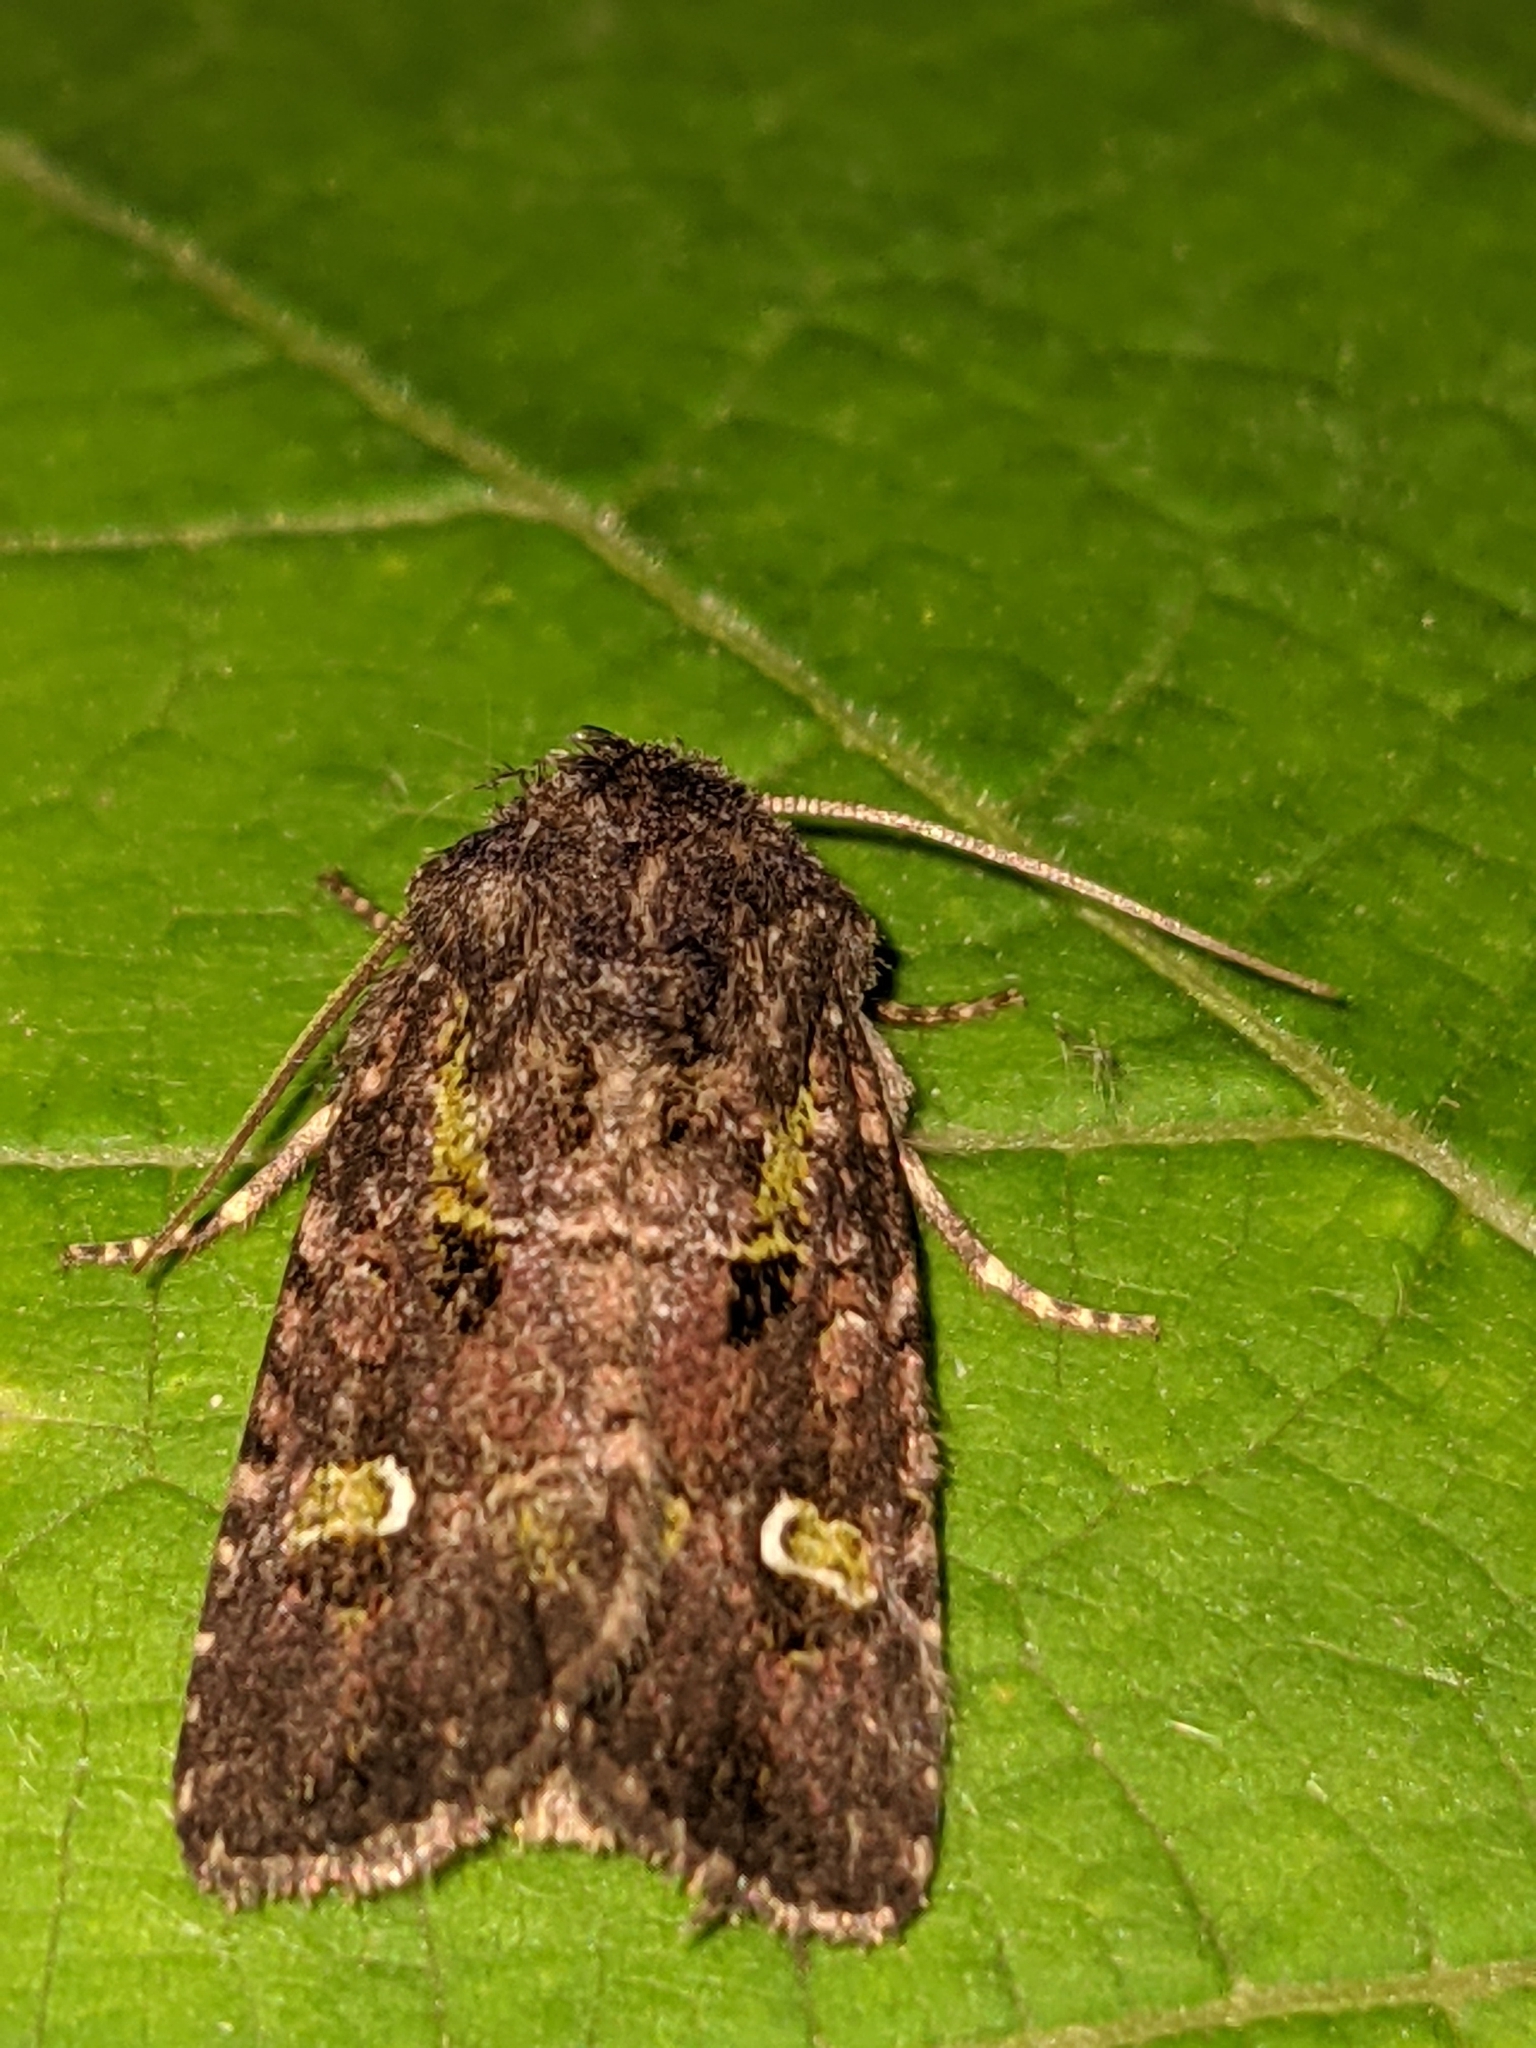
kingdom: Animalia
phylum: Arthropoda
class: Insecta
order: Lepidoptera
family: Noctuidae
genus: Lacinipolia
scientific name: Lacinipolia renigera
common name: Kidney-spotted minor
